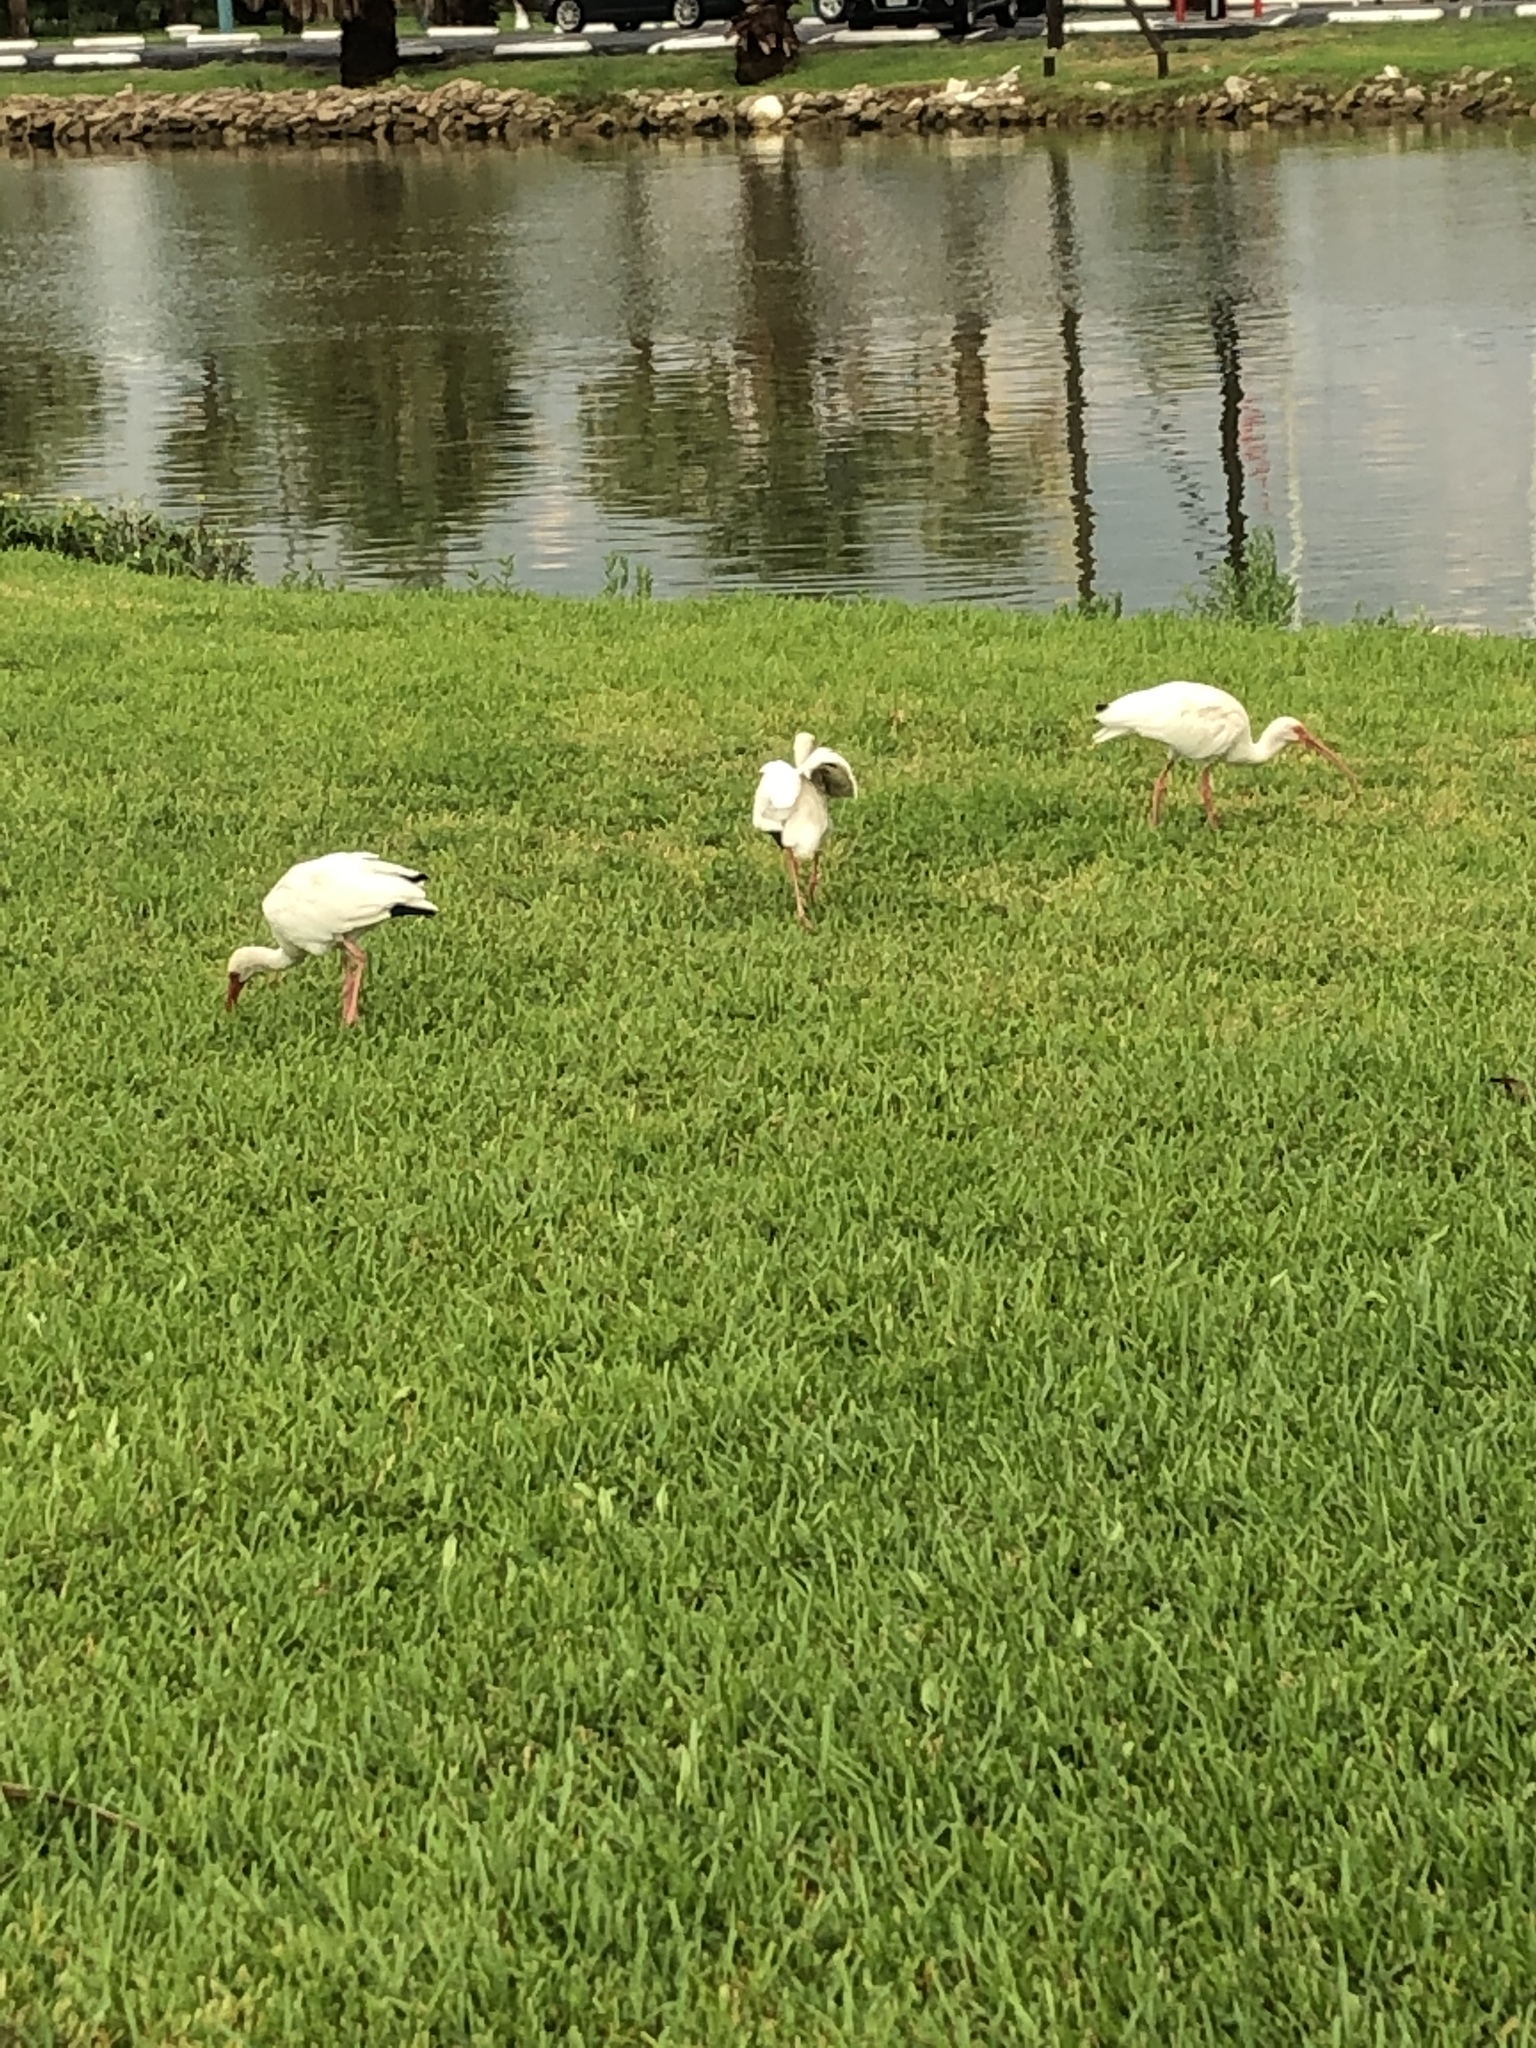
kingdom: Animalia
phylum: Chordata
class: Aves
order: Pelecaniformes
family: Threskiornithidae
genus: Eudocimus
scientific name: Eudocimus albus
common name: White ibis
